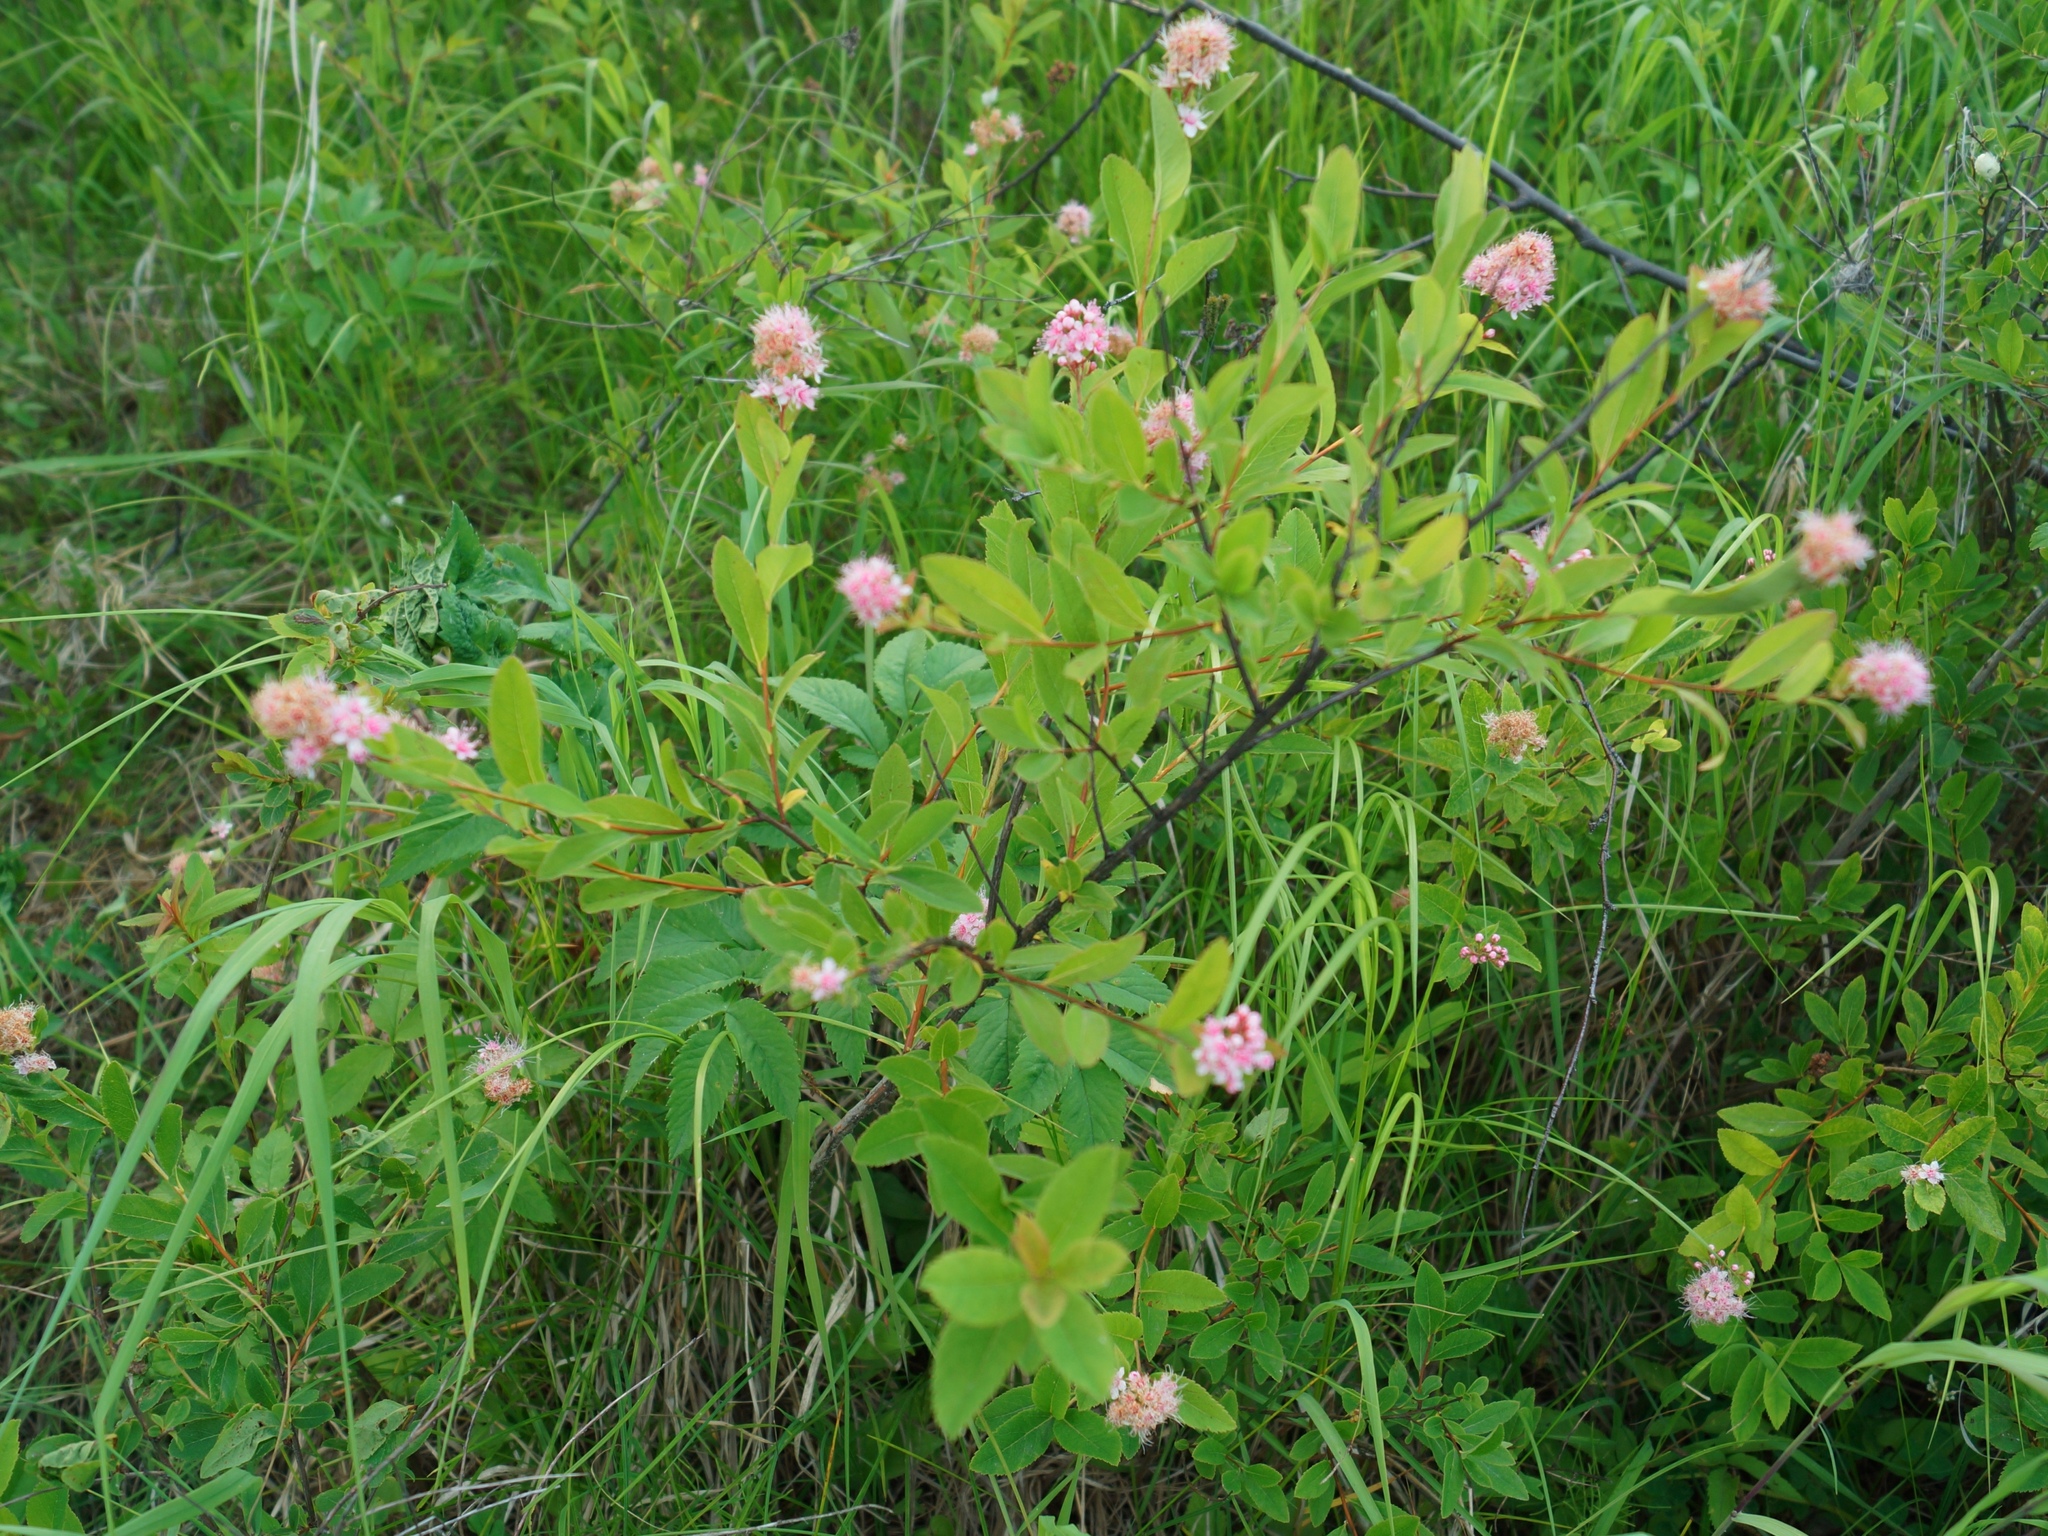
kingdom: Plantae
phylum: Tracheophyta
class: Magnoliopsida
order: Rosales
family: Rosaceae
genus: Spiraea
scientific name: Spiraea salicifolia
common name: Bridewort
